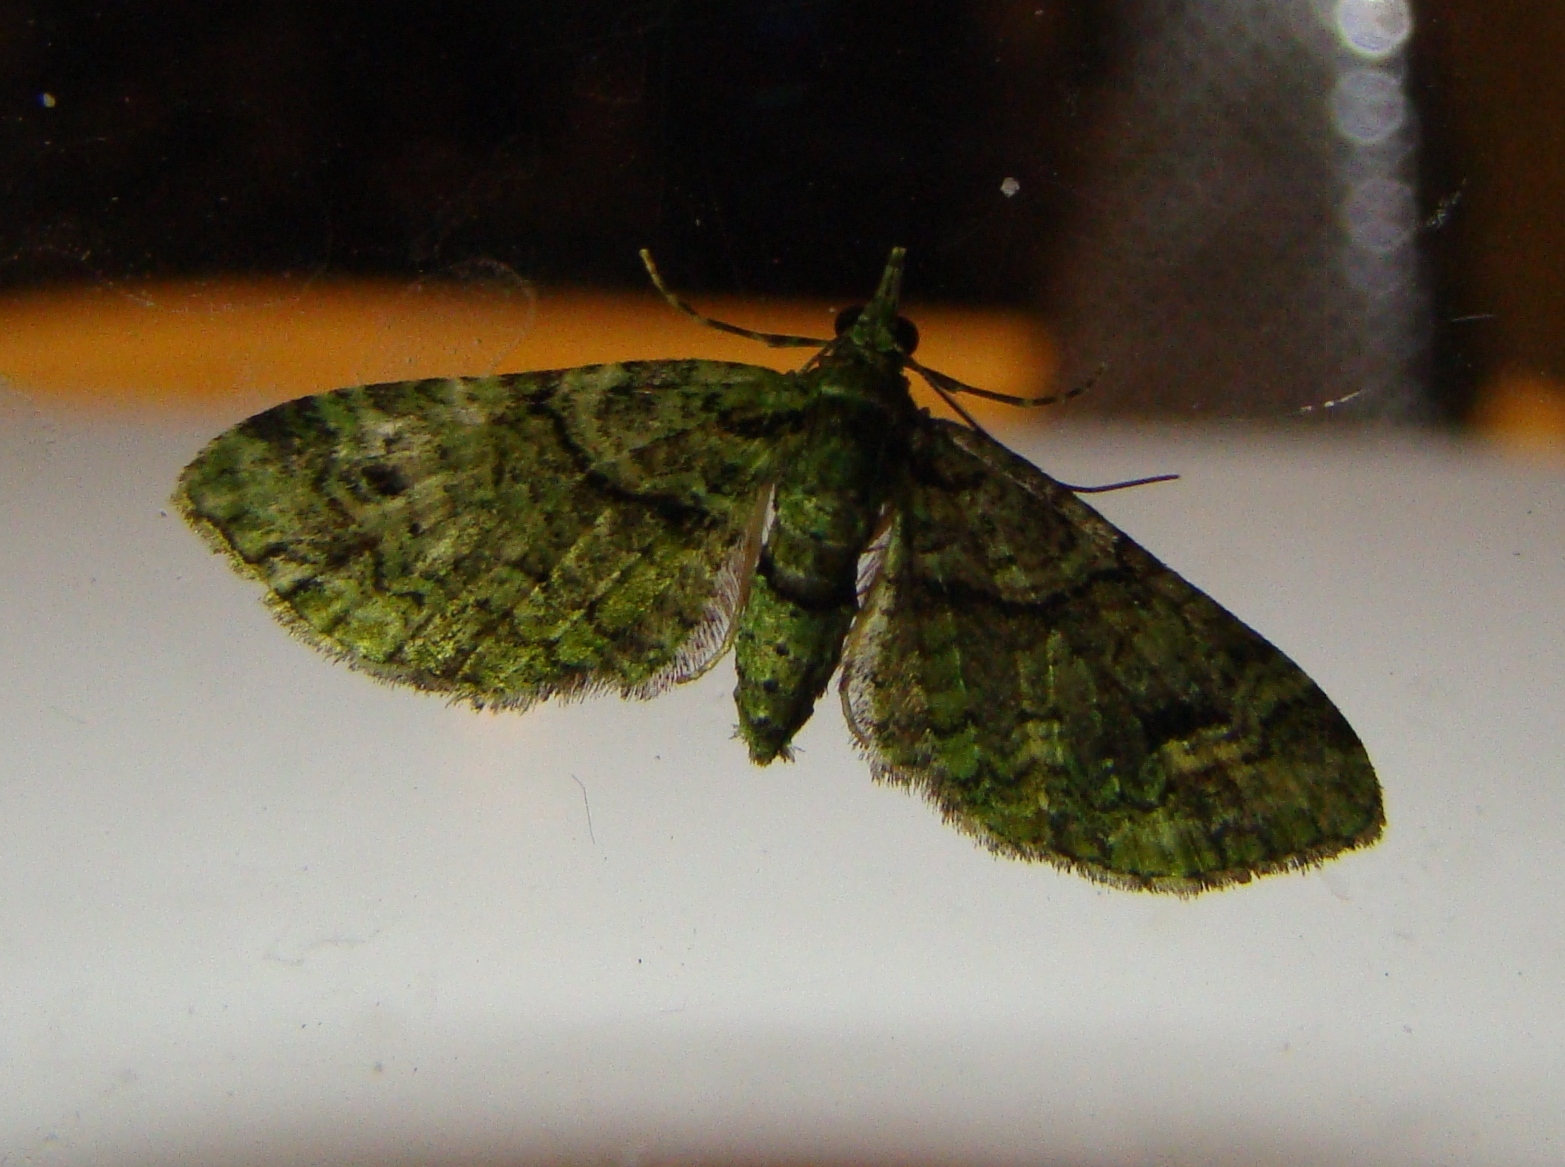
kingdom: Animalia
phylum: Arthropoda
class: Insecta
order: Lepidoptera
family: Geometridae
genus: Idaea
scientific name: Idaea mutanda
